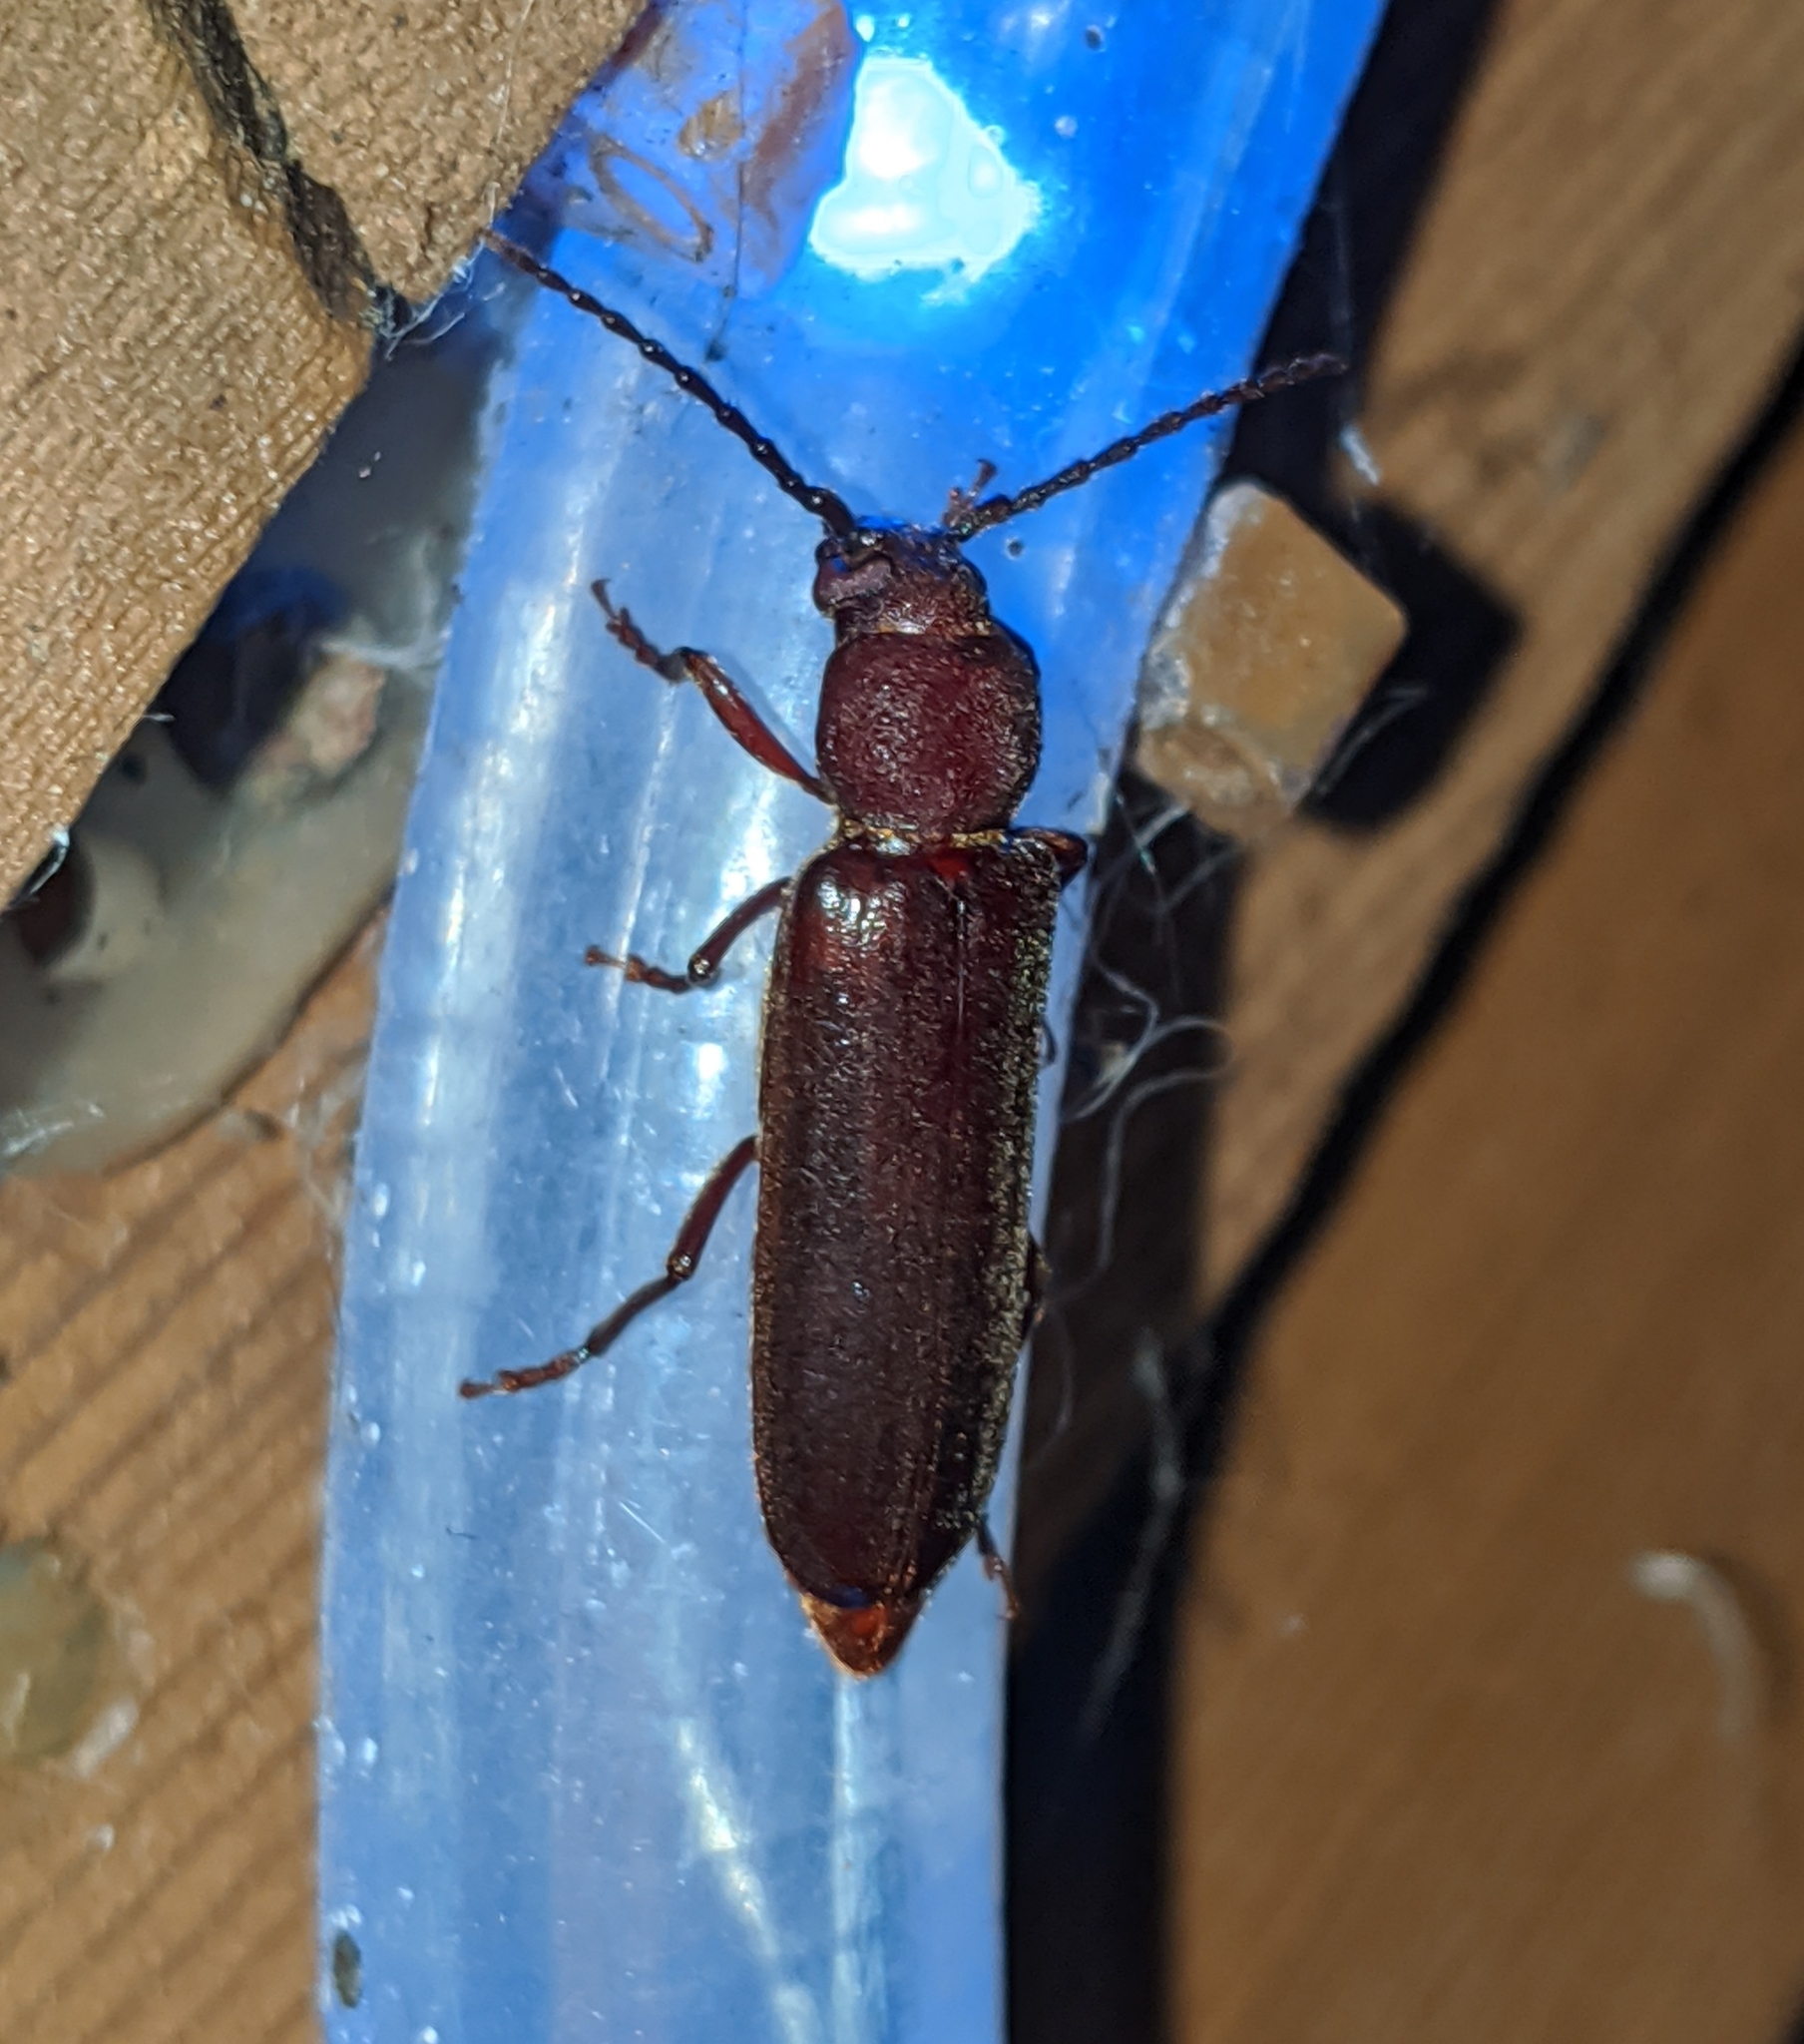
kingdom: Animalia
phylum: Arthropoda
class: Insecta
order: Coleoptera
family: Cerambycidae
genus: Megasemum
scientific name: Megasemum asperum
